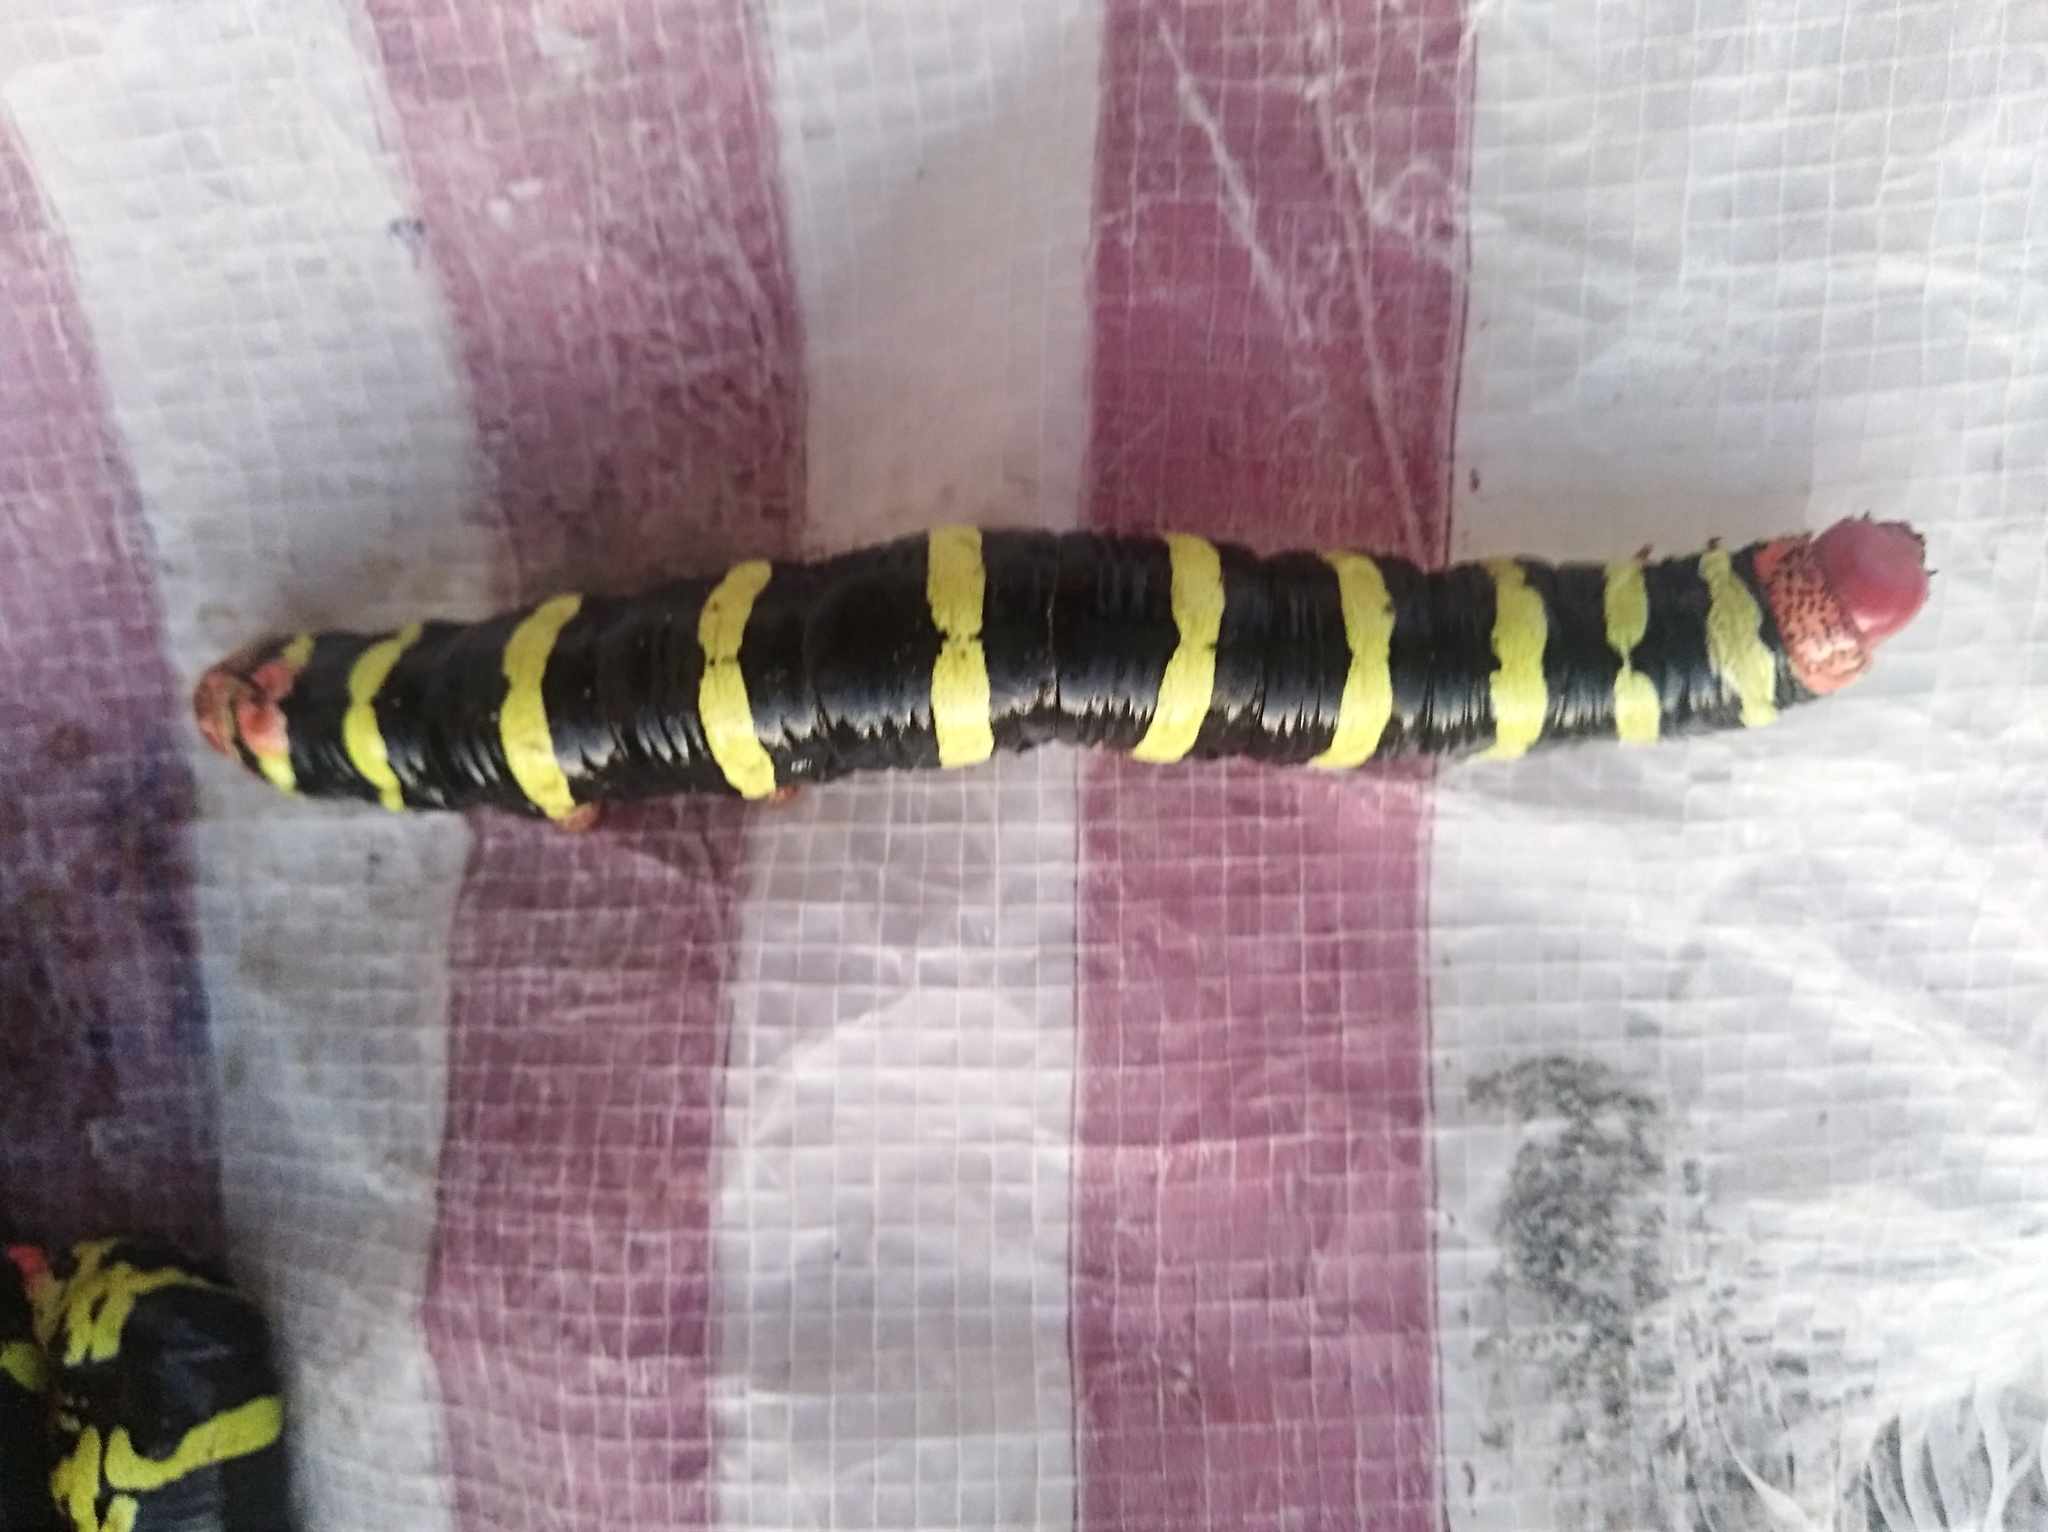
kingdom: Animalia
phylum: Arthropoda
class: Insecta
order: Lepidoptera
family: Sphingidae
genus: Pseudosphinx
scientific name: Pseudosphinx tetrio
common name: Tetrio sphinx
